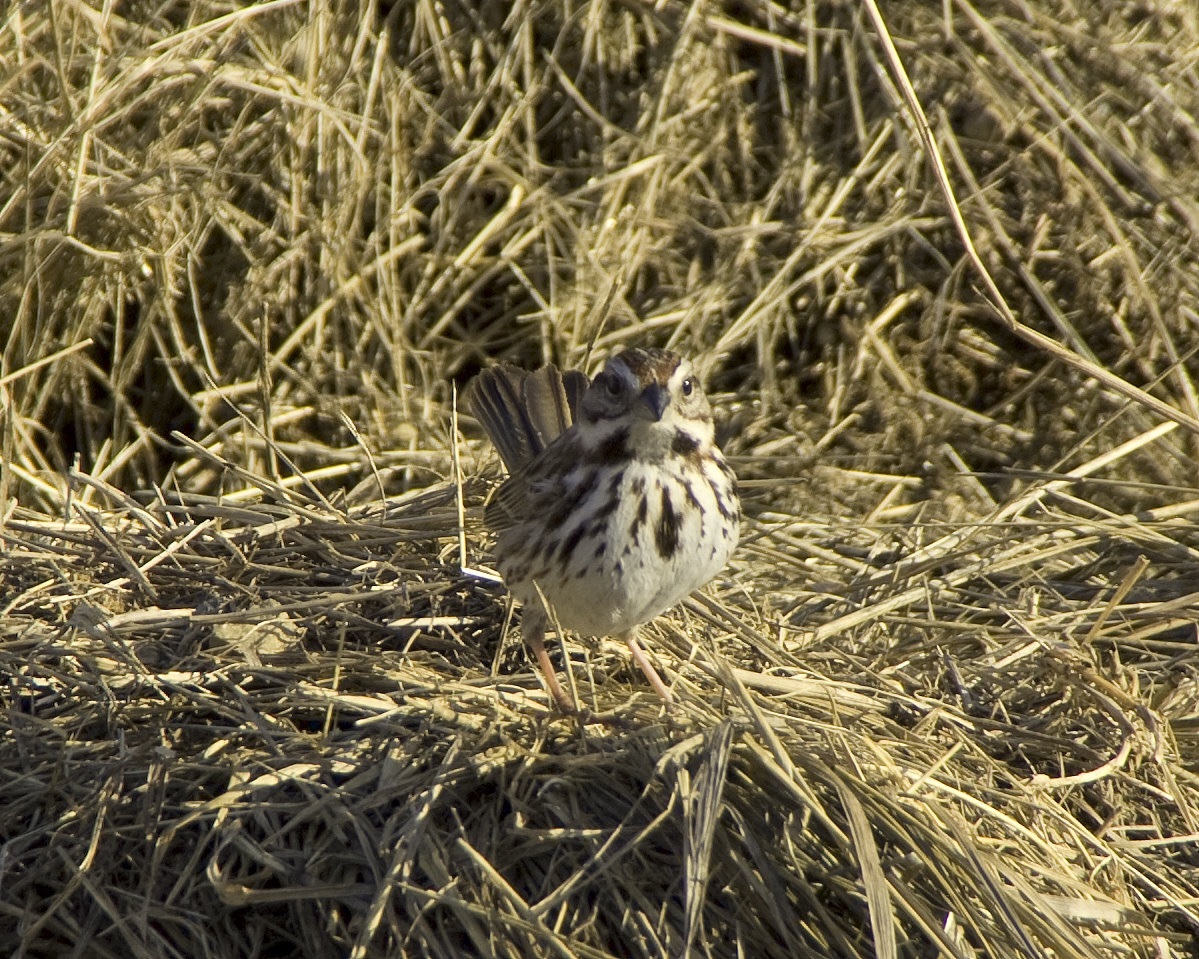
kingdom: Animalia
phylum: Chordata
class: Aves
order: Passeriformes
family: Passerellidae
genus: Melospiza
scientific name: Melospiza melodia
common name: Song sparrow
